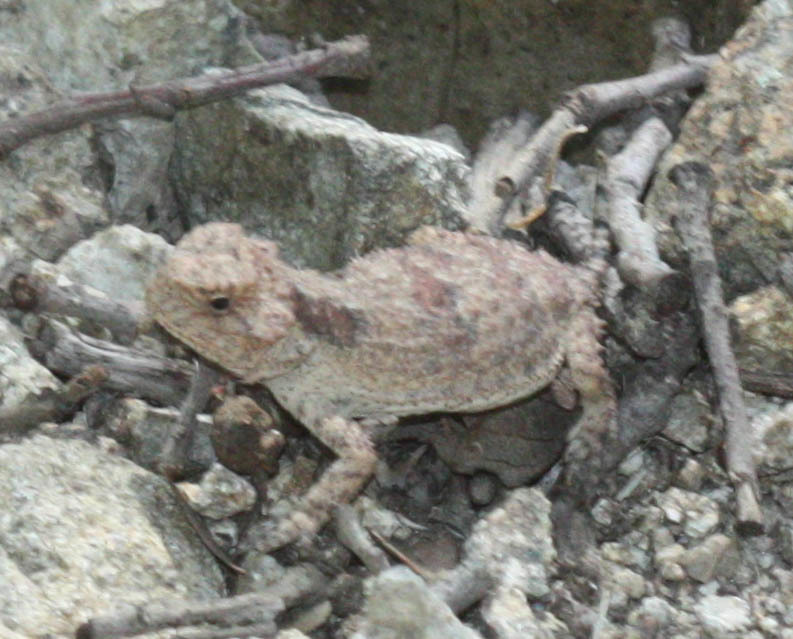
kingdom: Animalia
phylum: Chordata
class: Squamata
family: Phrynosomatidae
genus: Phrynosoma
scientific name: Phrynosoma hernandesi
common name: Greater short-horned lizard
